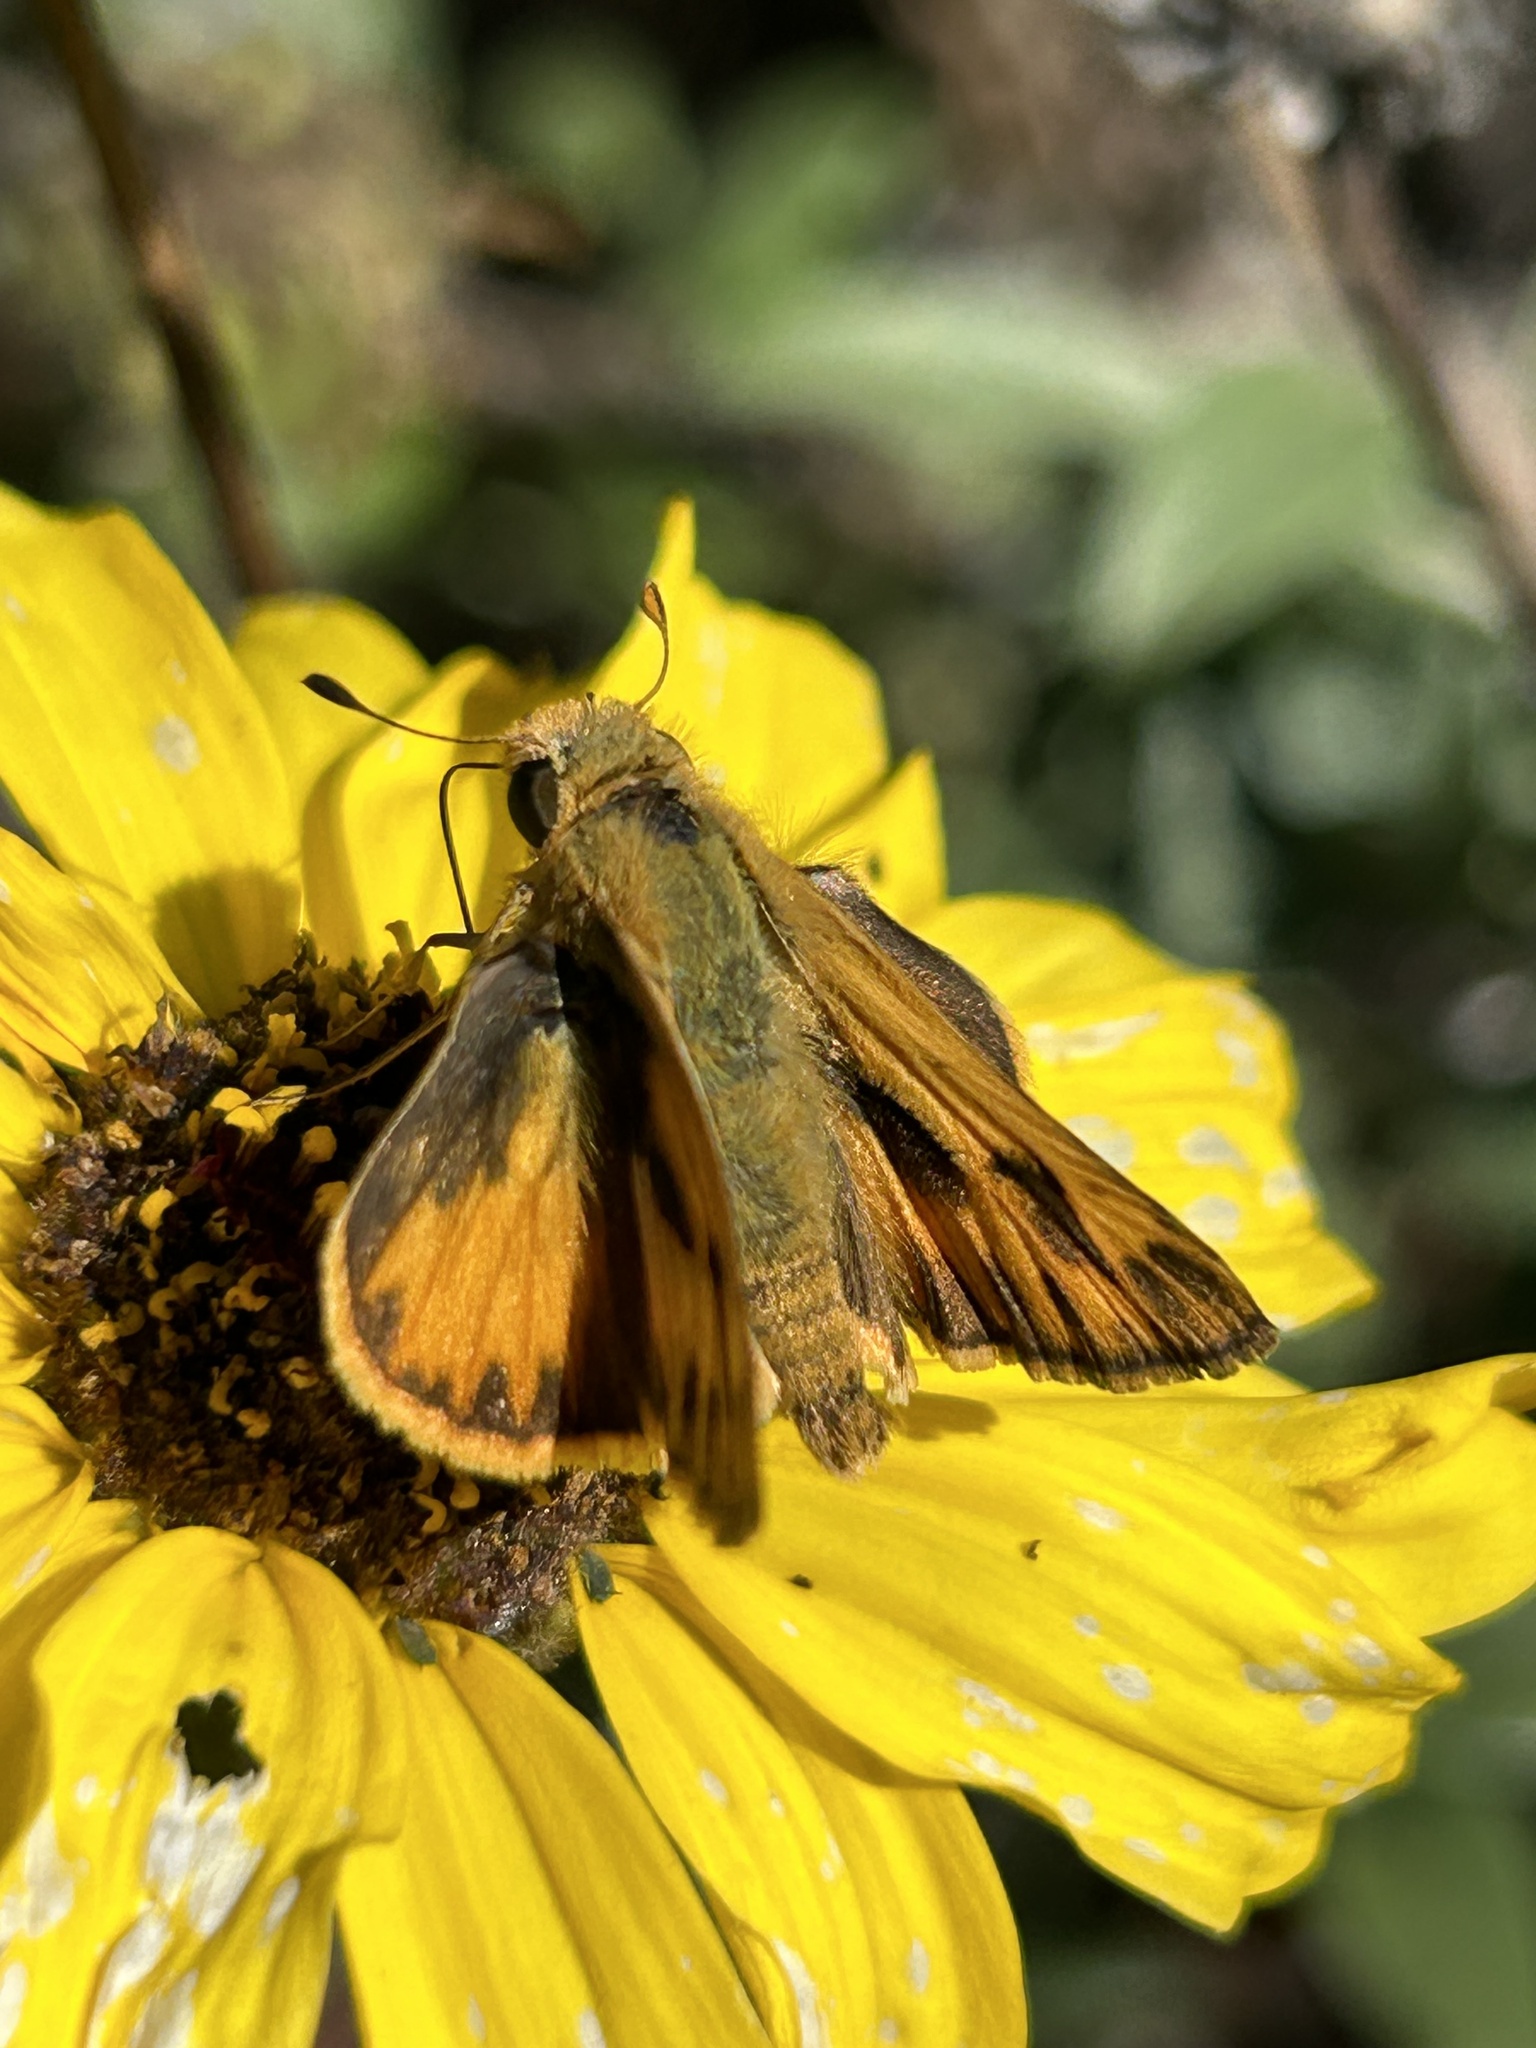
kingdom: Animalia
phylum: Arthropoda
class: Insecta
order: Lepidoptera
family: Hesperiidae
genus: Hylephila
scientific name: Hylephila phyleus
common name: Fiery skipper
